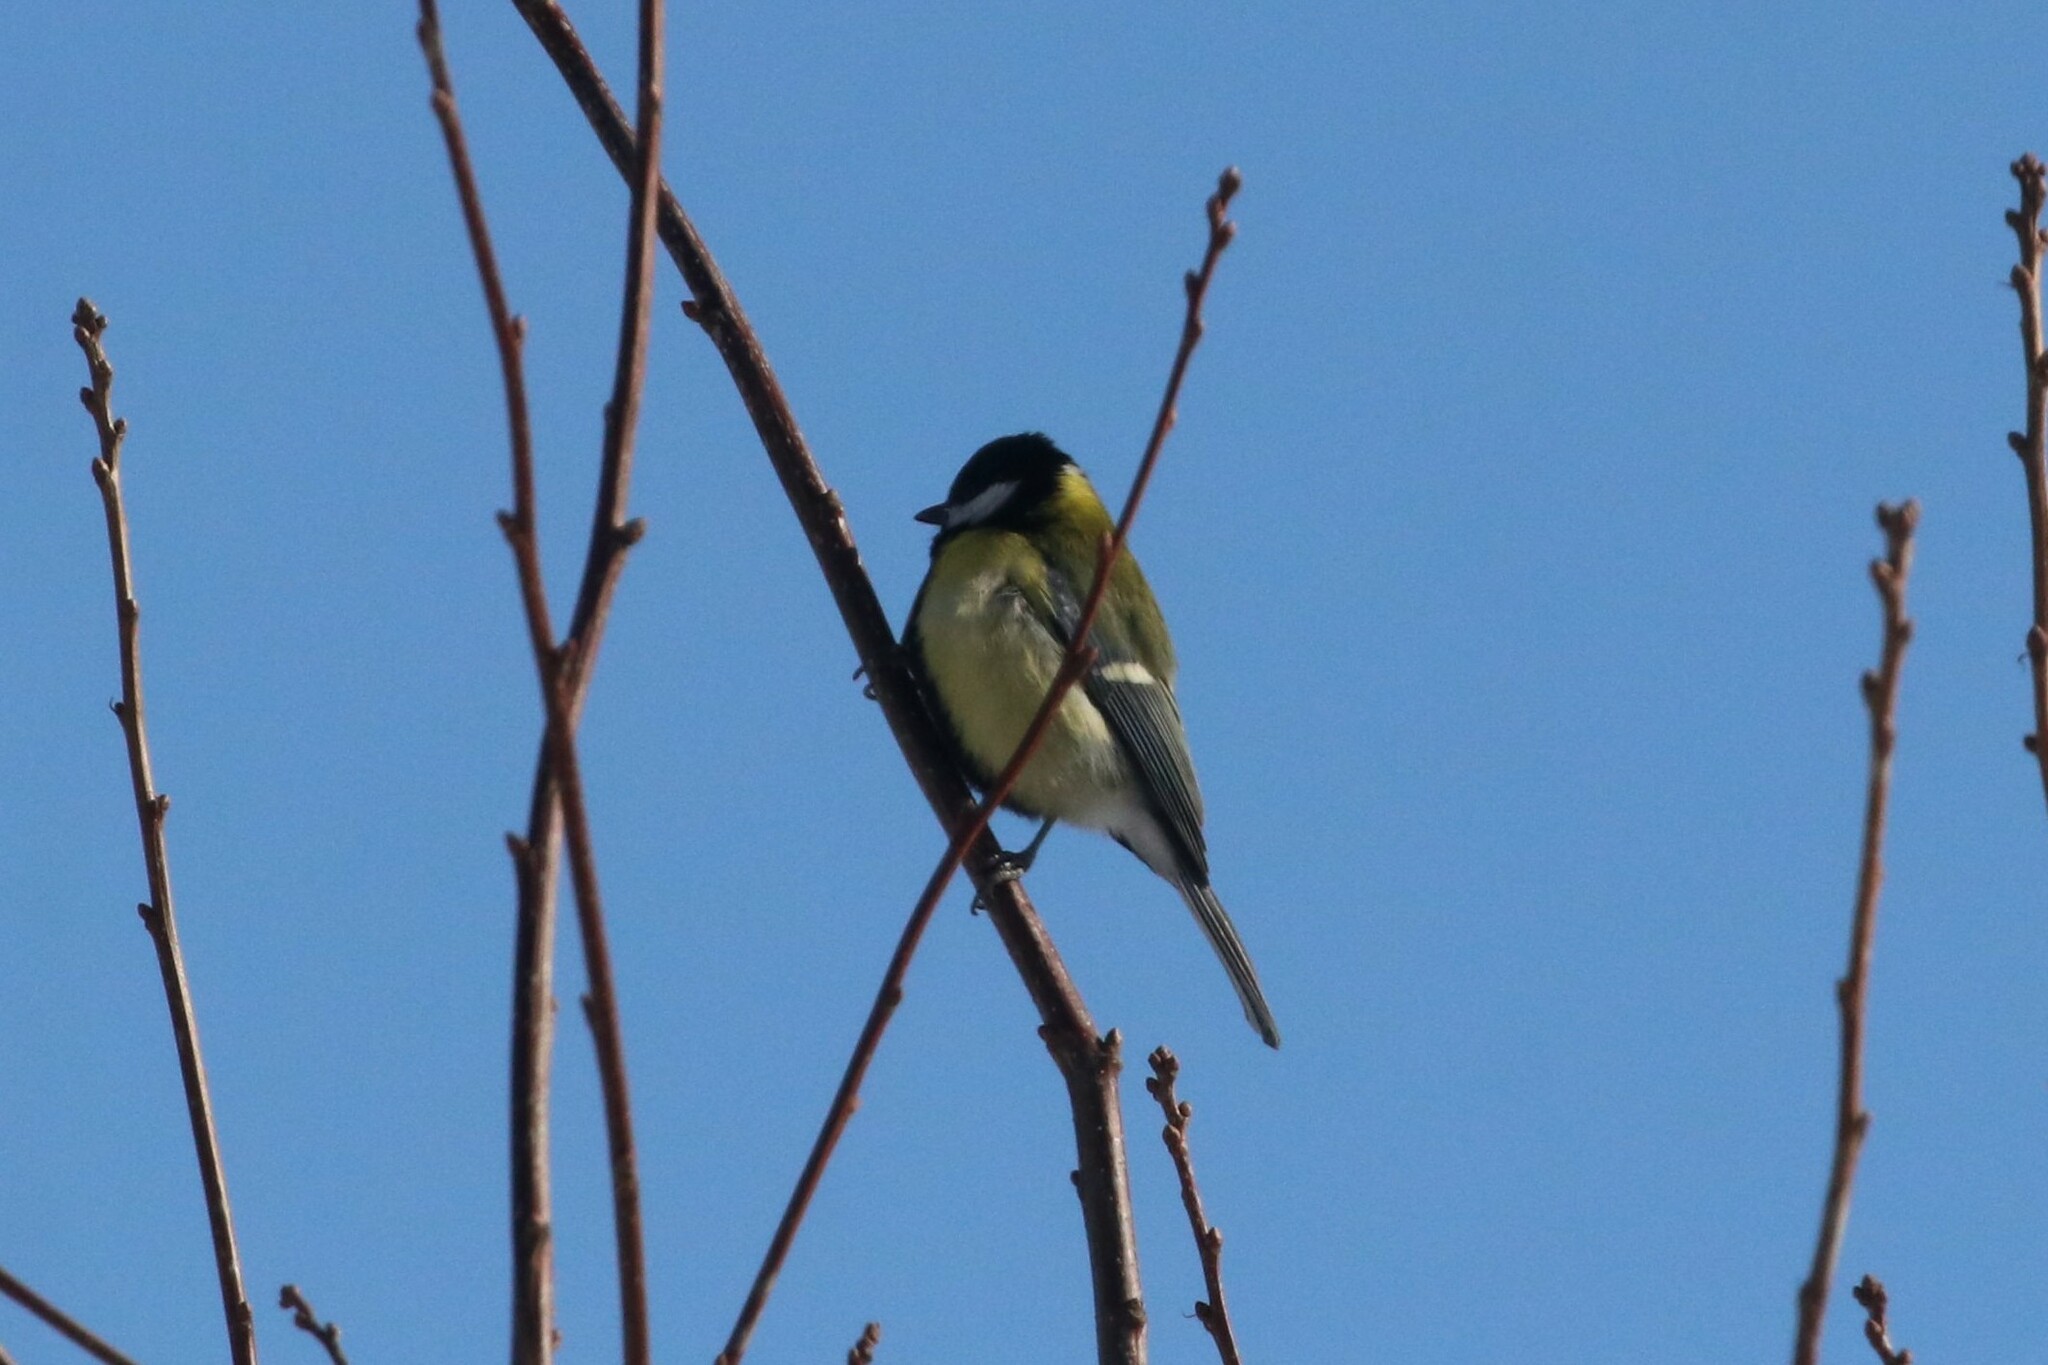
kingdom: Animalia
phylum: Chordata
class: Aves
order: Passeriformes
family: Paridae
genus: Parus
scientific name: Parus major
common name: Great tit
